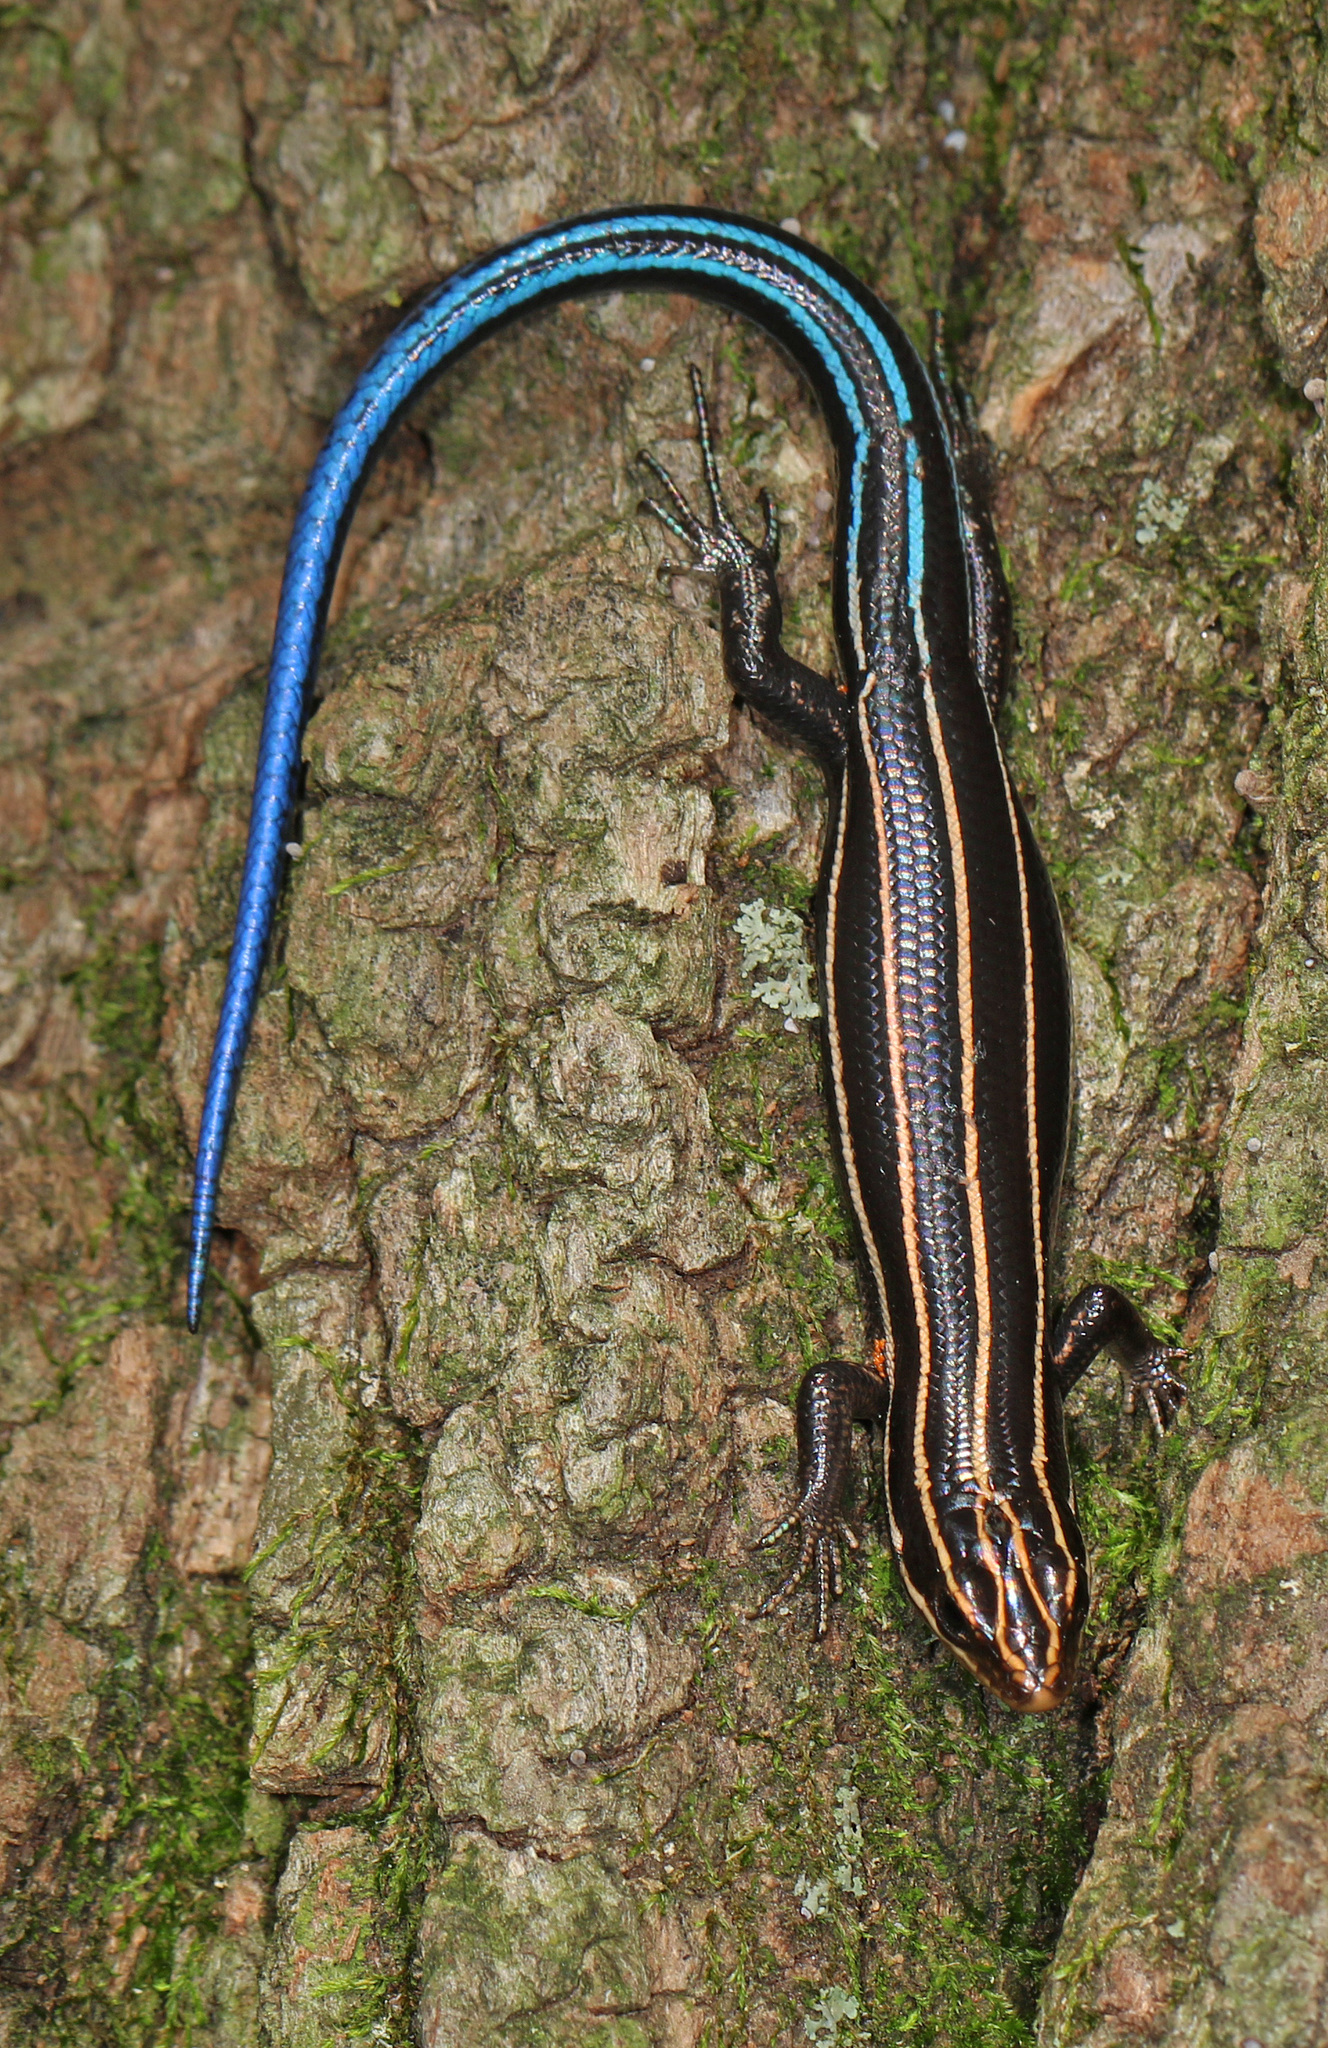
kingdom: Animalia
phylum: Chordata
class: Squamata
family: Scincidae
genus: Plestiodon
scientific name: Plestiodon fasciatus
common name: Five-lined skink
